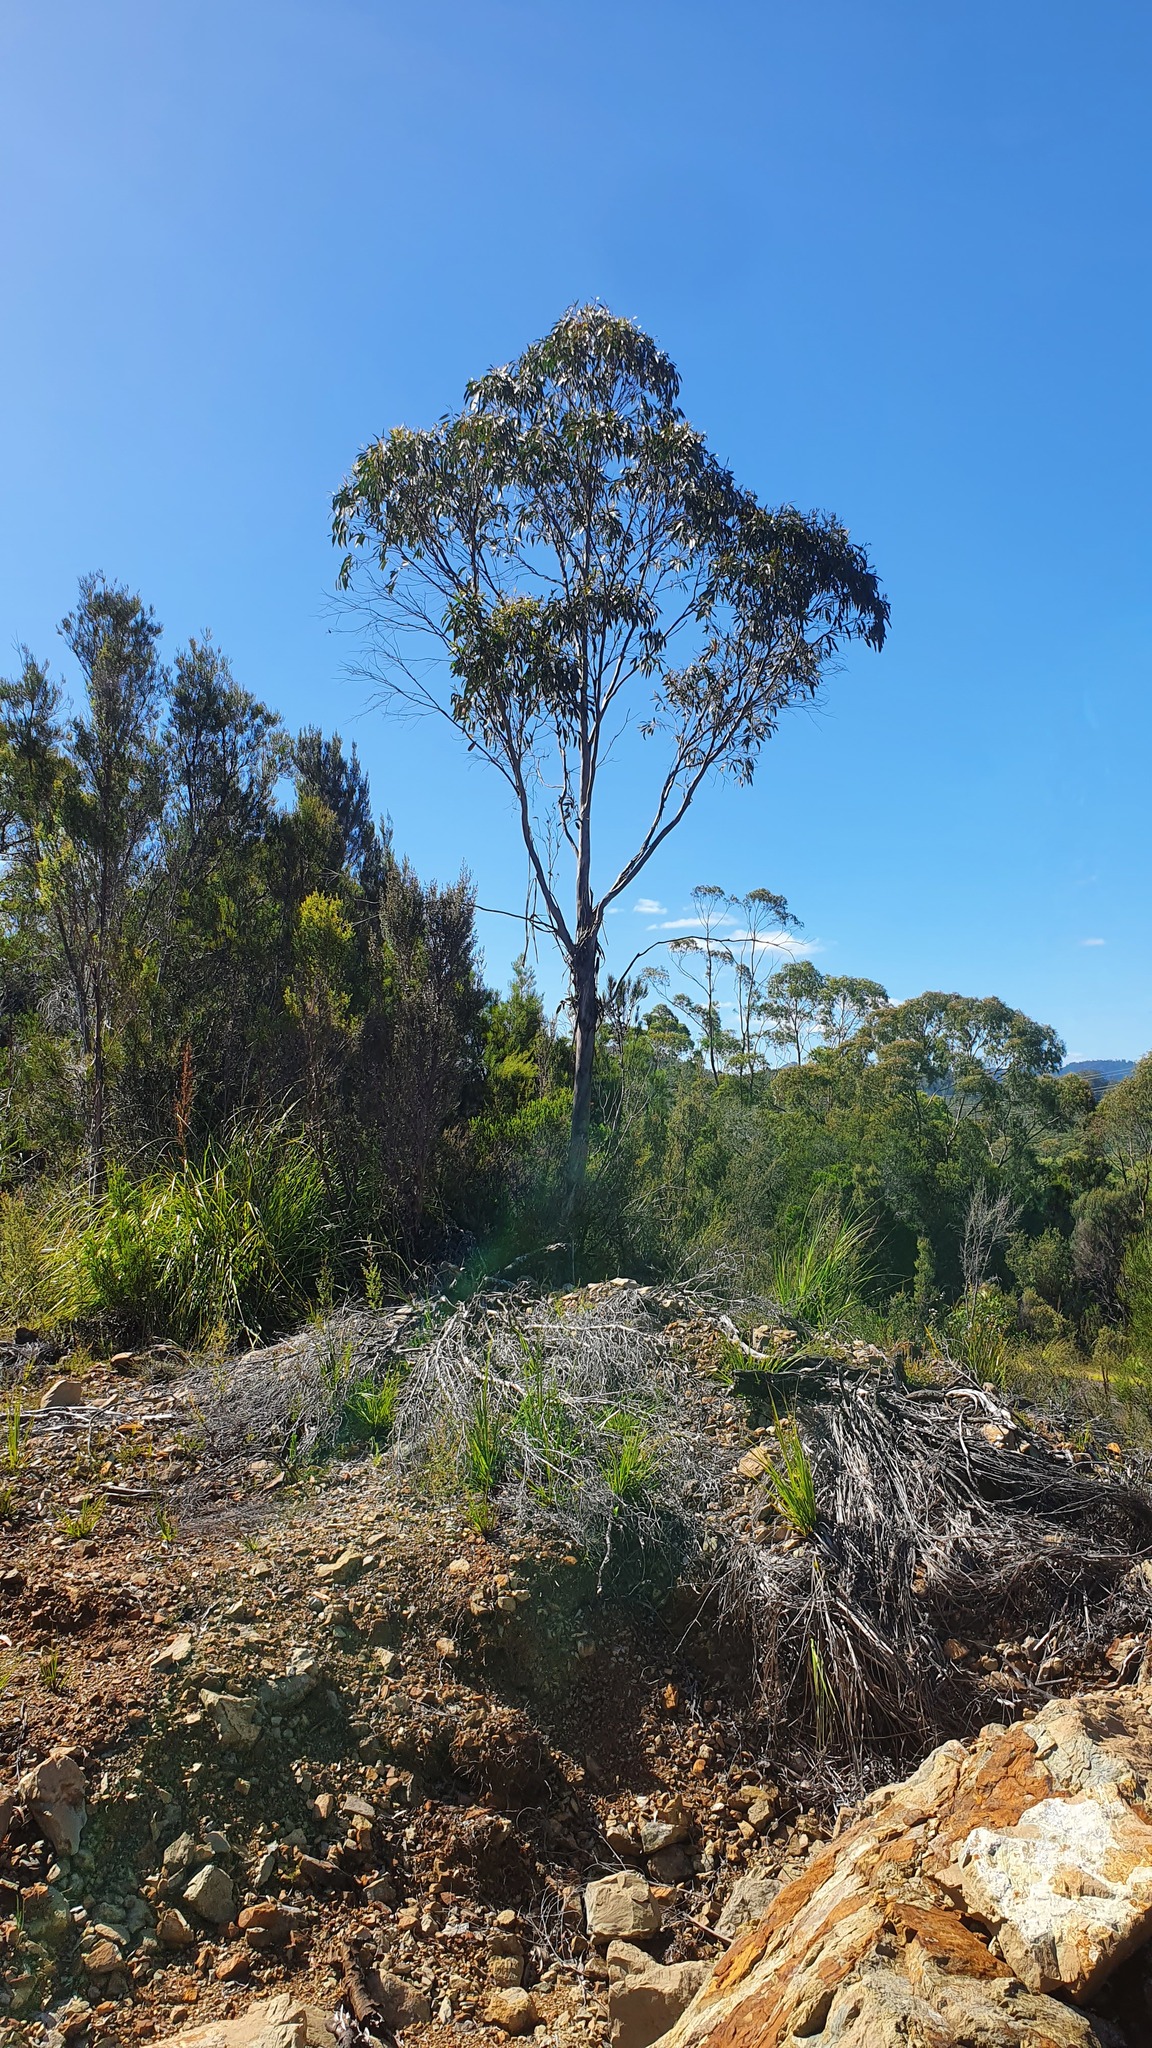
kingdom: Plantae
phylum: Tracheophyta
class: Magnoliopsida
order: Myrtales
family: Myrtaceae
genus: Eucalyptus
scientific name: Eucalyptus coccifera
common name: Tasmanian snow-gum
